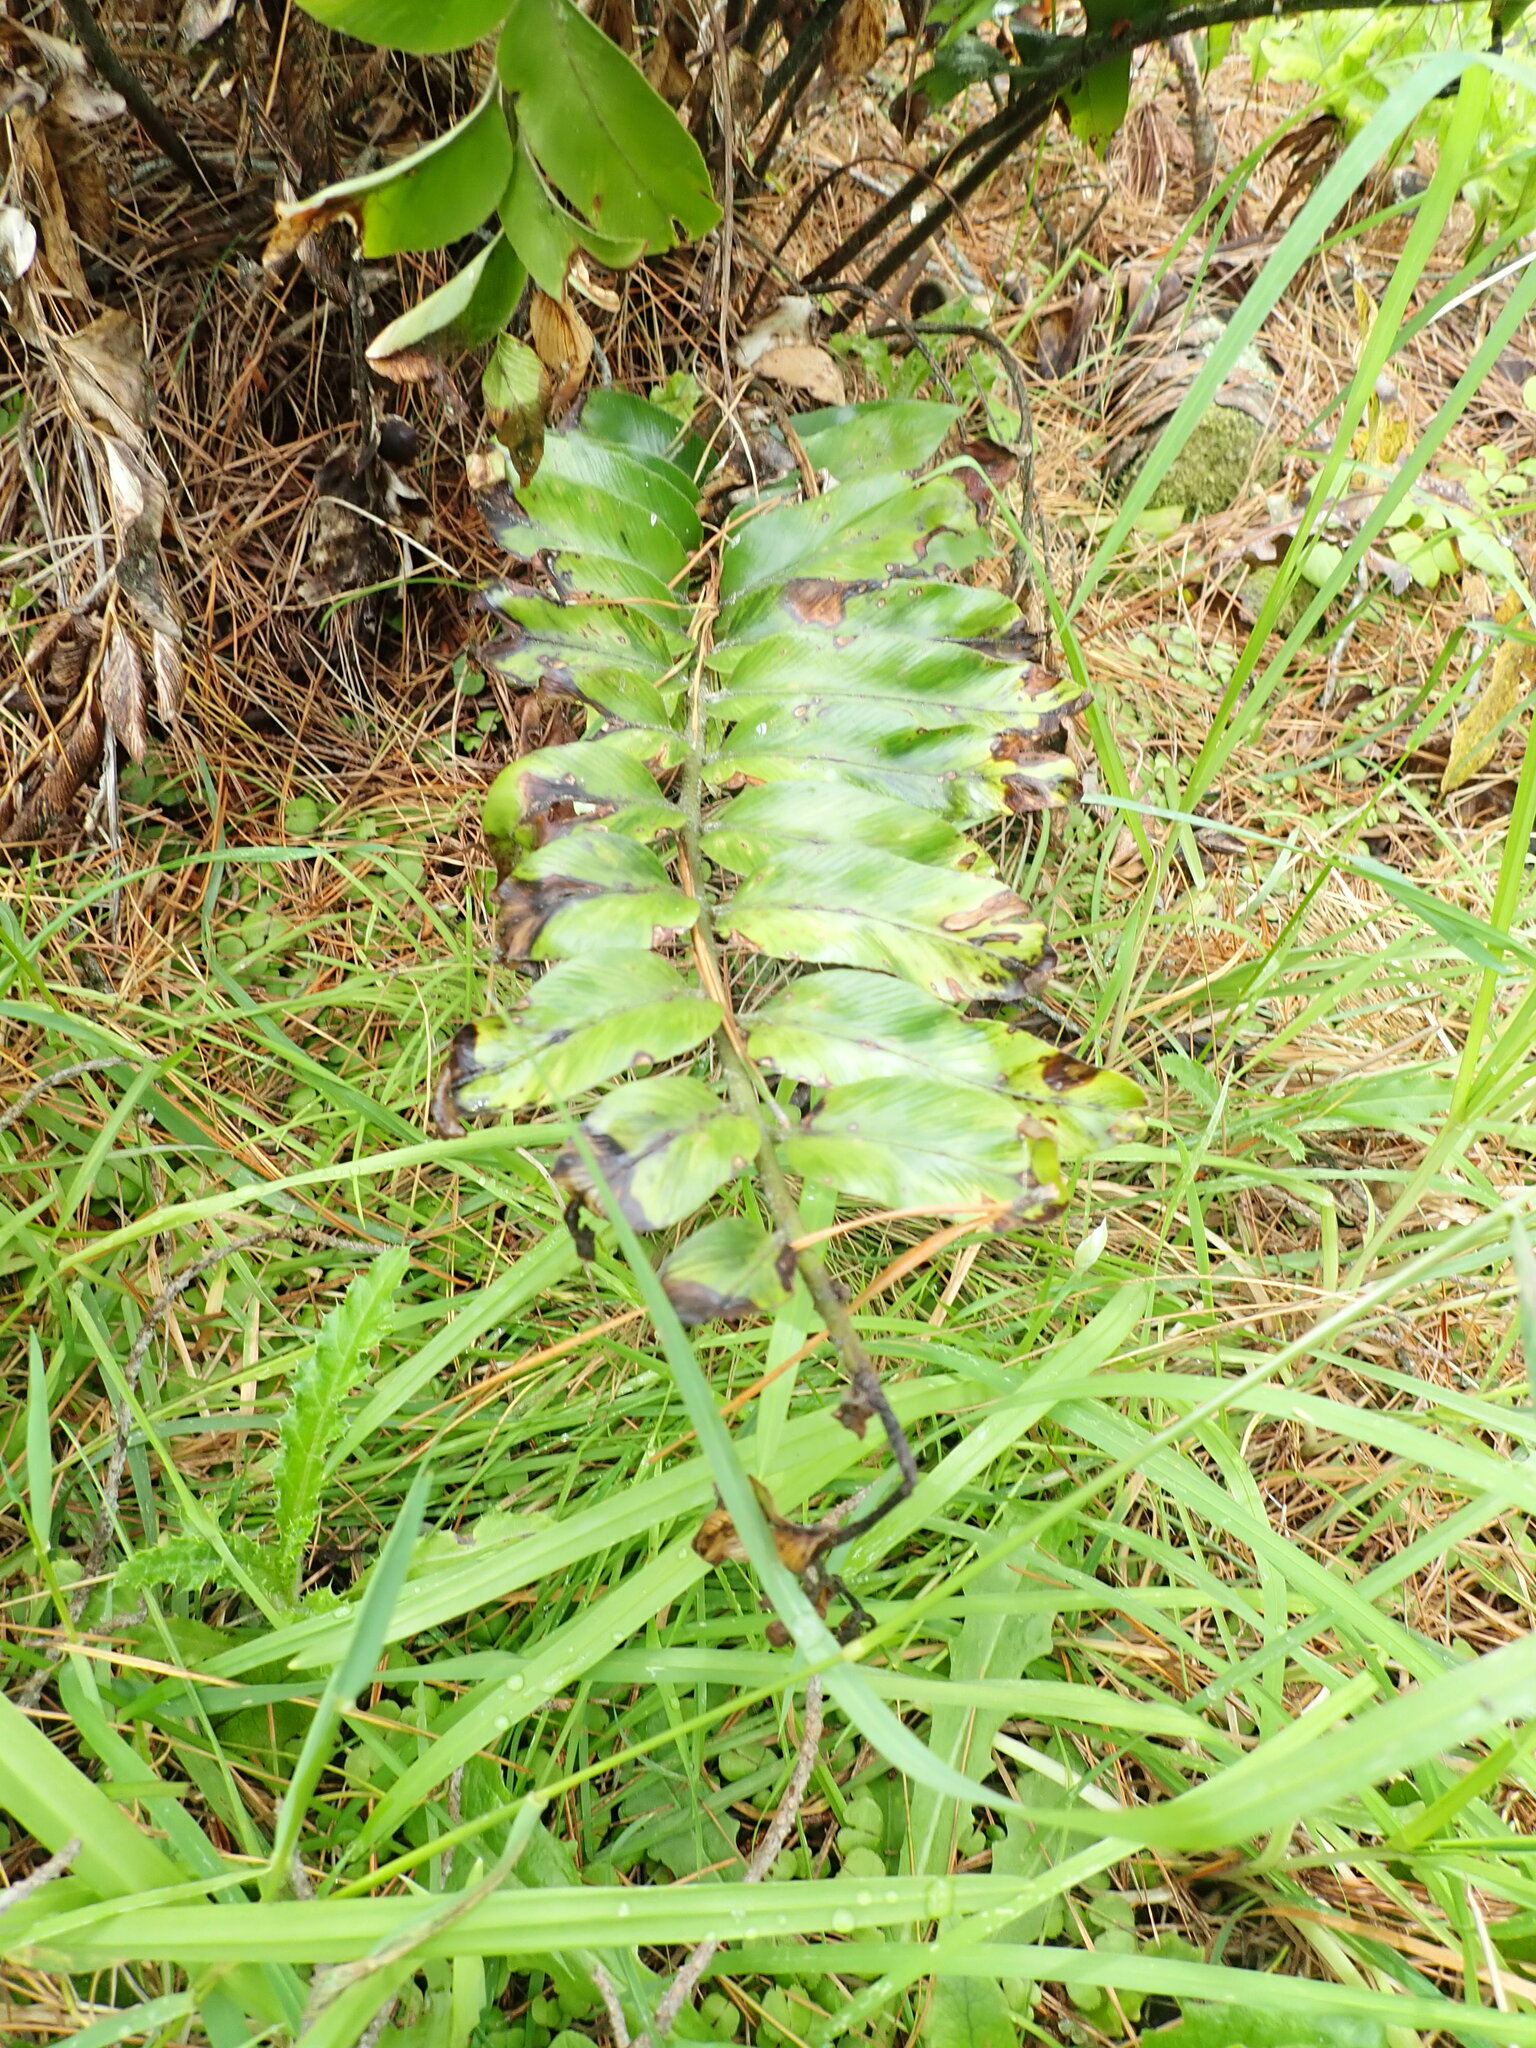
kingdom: Plantae
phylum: Tracheophyta
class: Polypodiopsida
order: Polypodiales
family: Aspleniaceae
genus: Asplenium
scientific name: Asplenium oblongifolium
